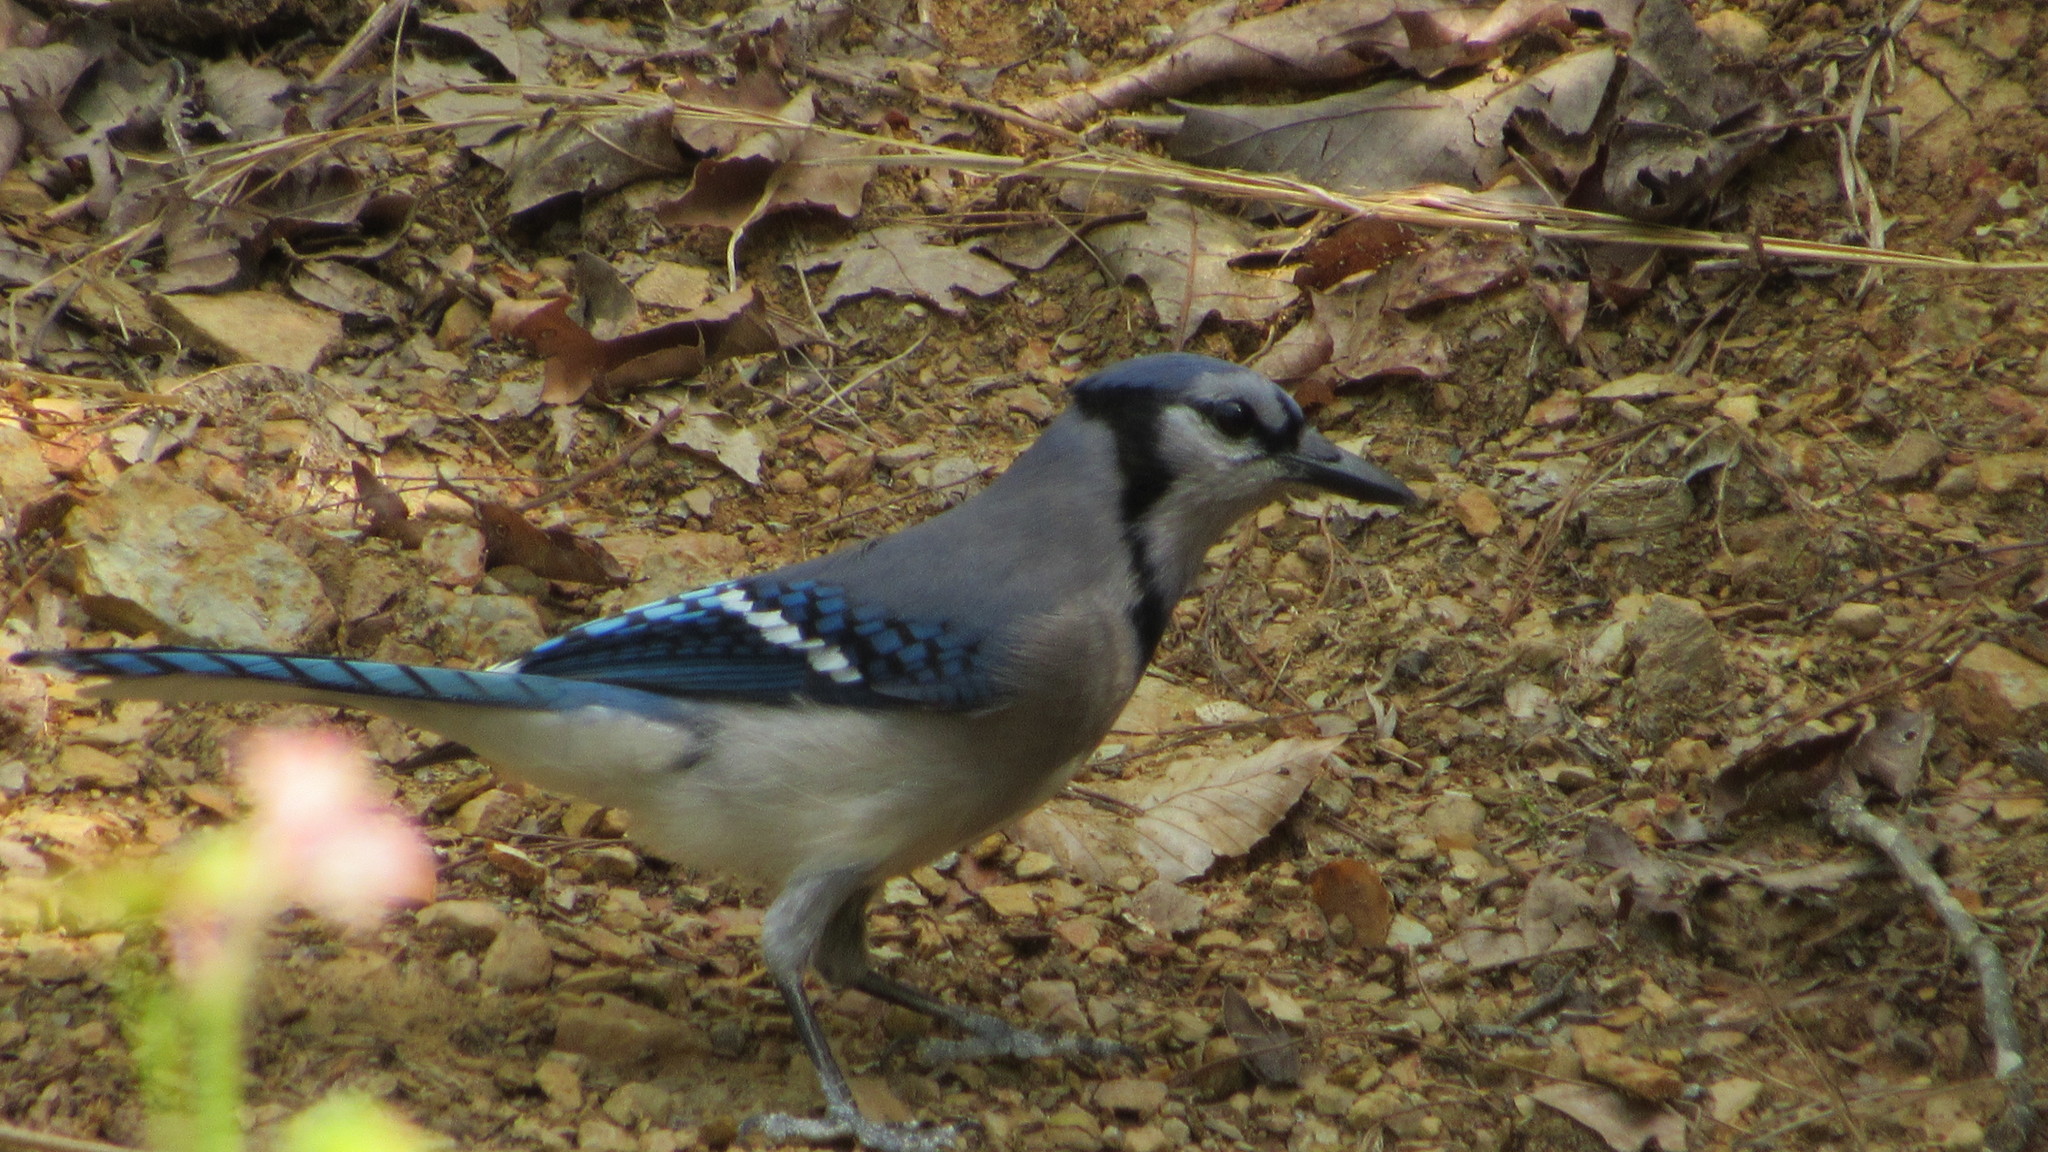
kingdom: Animalia
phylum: Chordata
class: Aves
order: Passeriformes
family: Corvidae
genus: Cyanocitta
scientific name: Cyanocitta cristata
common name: Blue jay
